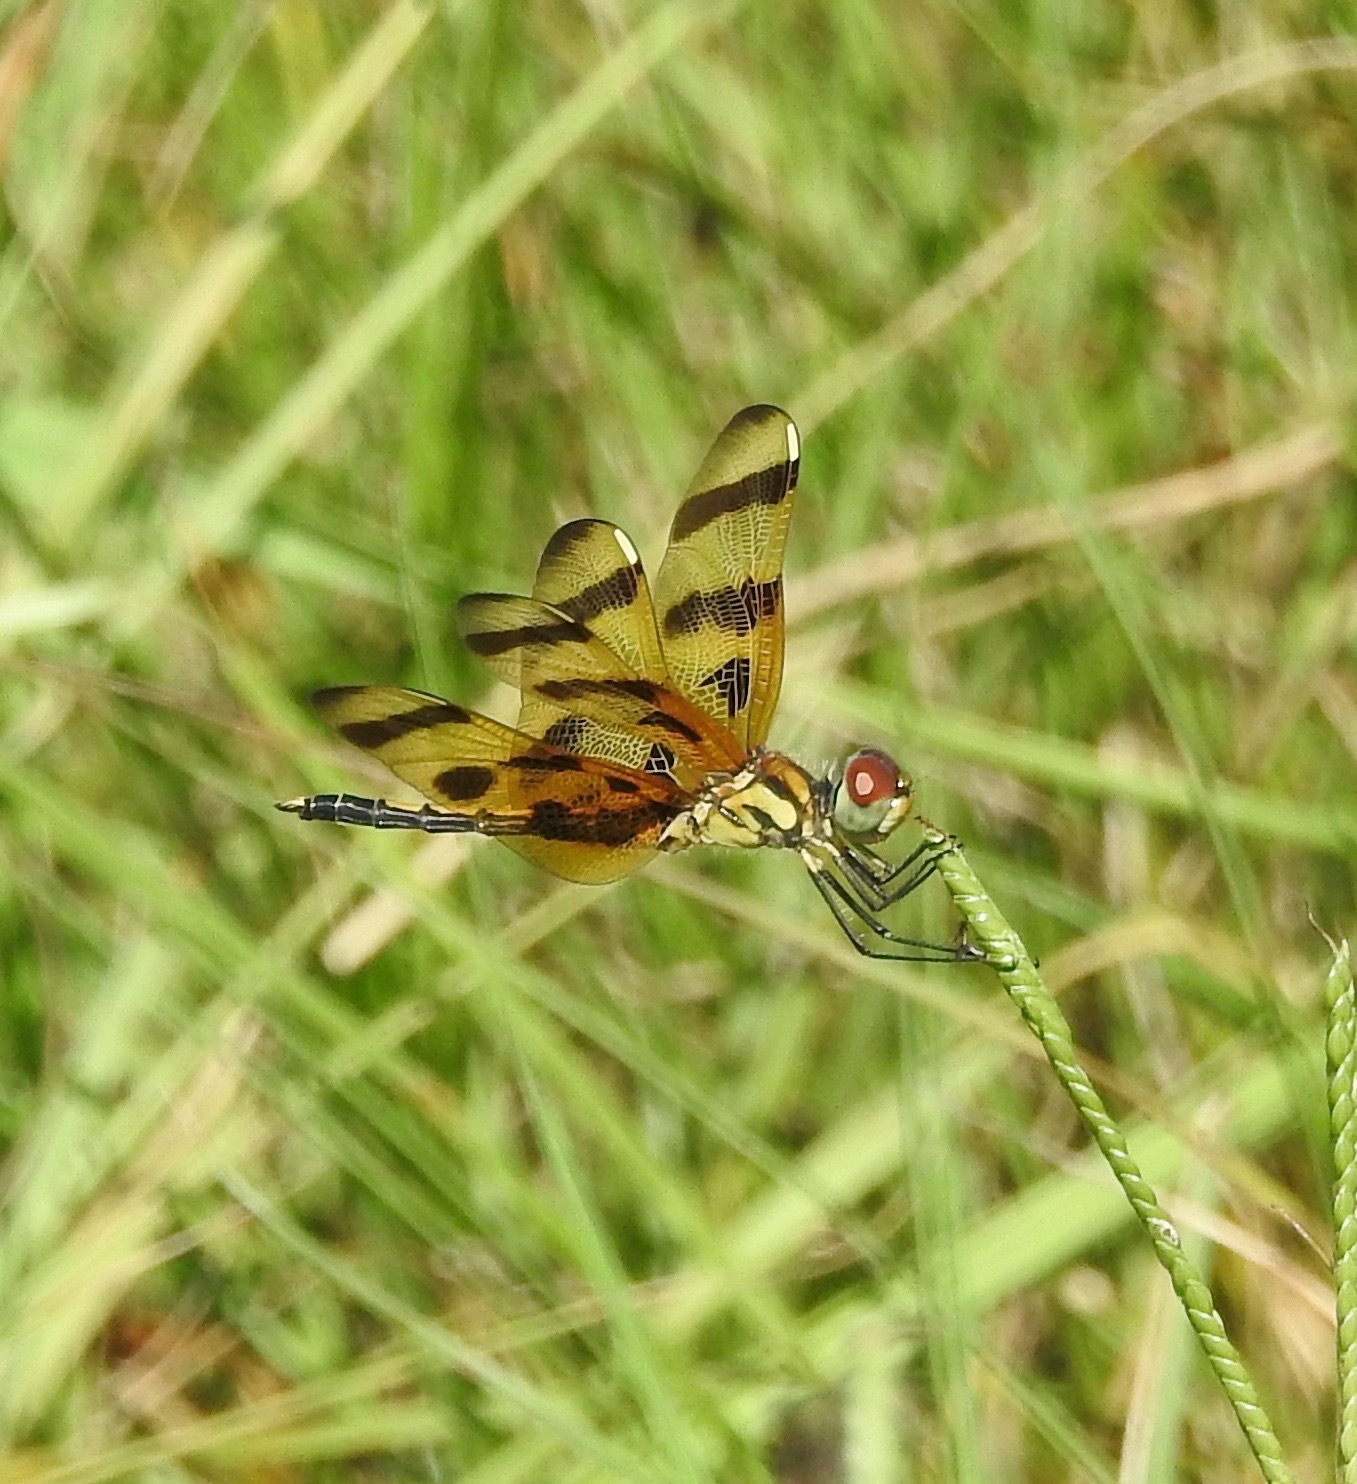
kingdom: Animalia
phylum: Arthropoda
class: Insecta
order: Odonata
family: Libellulidae
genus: Celithemis
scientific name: Celithemis eponina
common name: Halloween pennant
